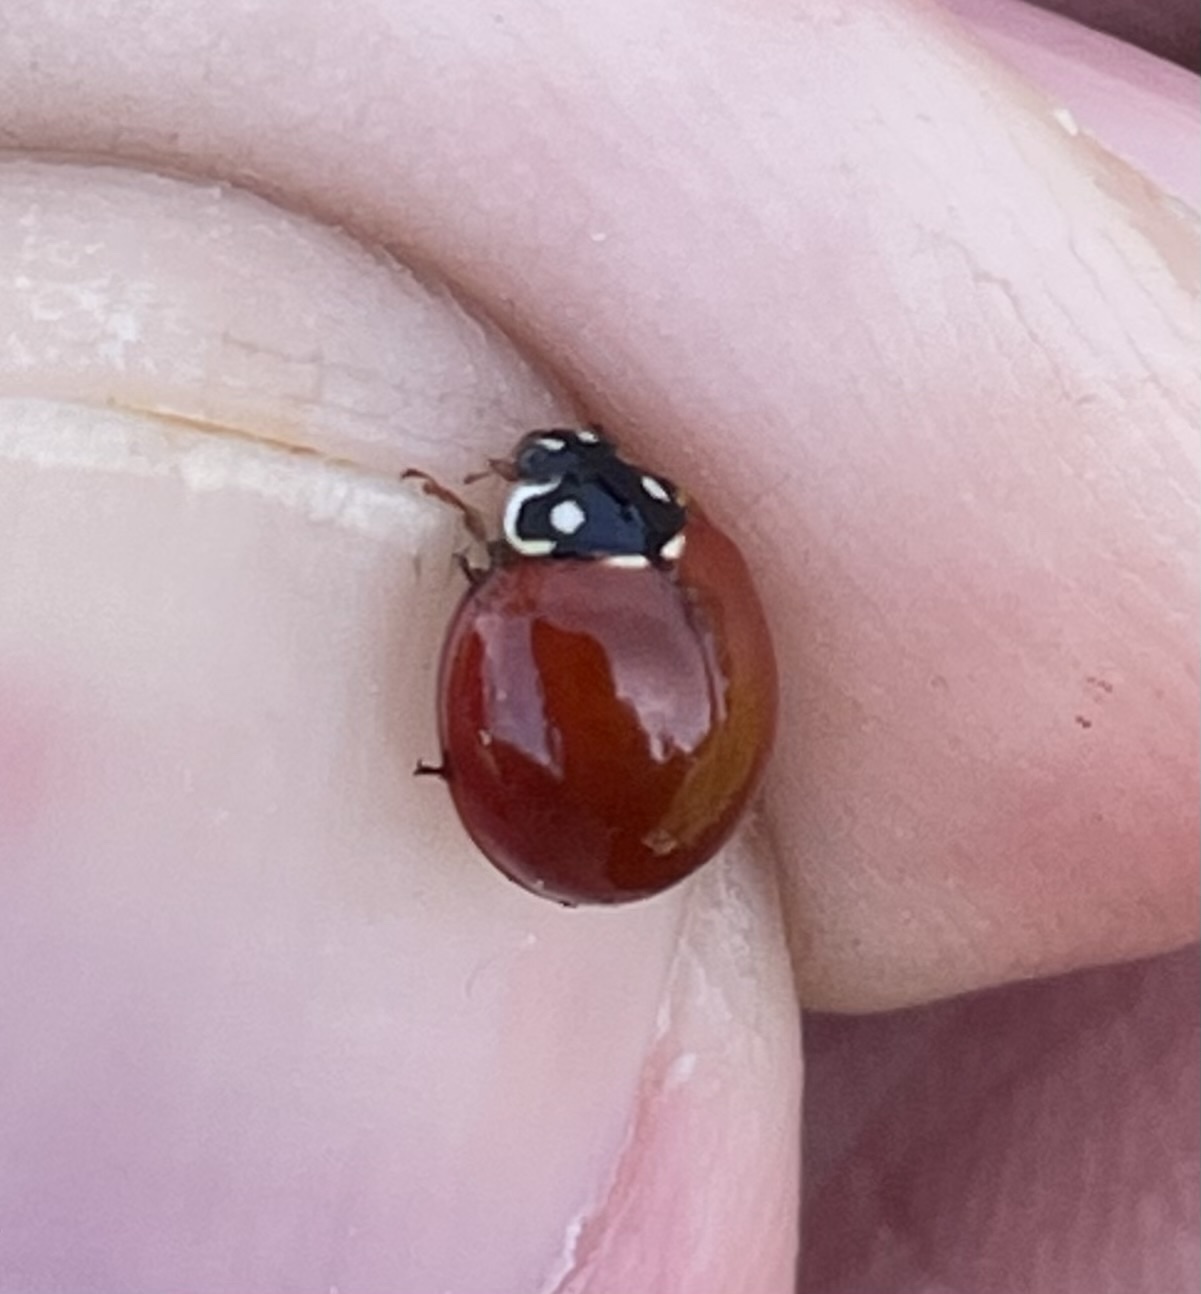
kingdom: Animalia
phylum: Arthropoda
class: Insecta
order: Coleoptera
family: Coccinellidae
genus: Cycloneda
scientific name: Cycloneda sanguinea
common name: Ladybird beetle
